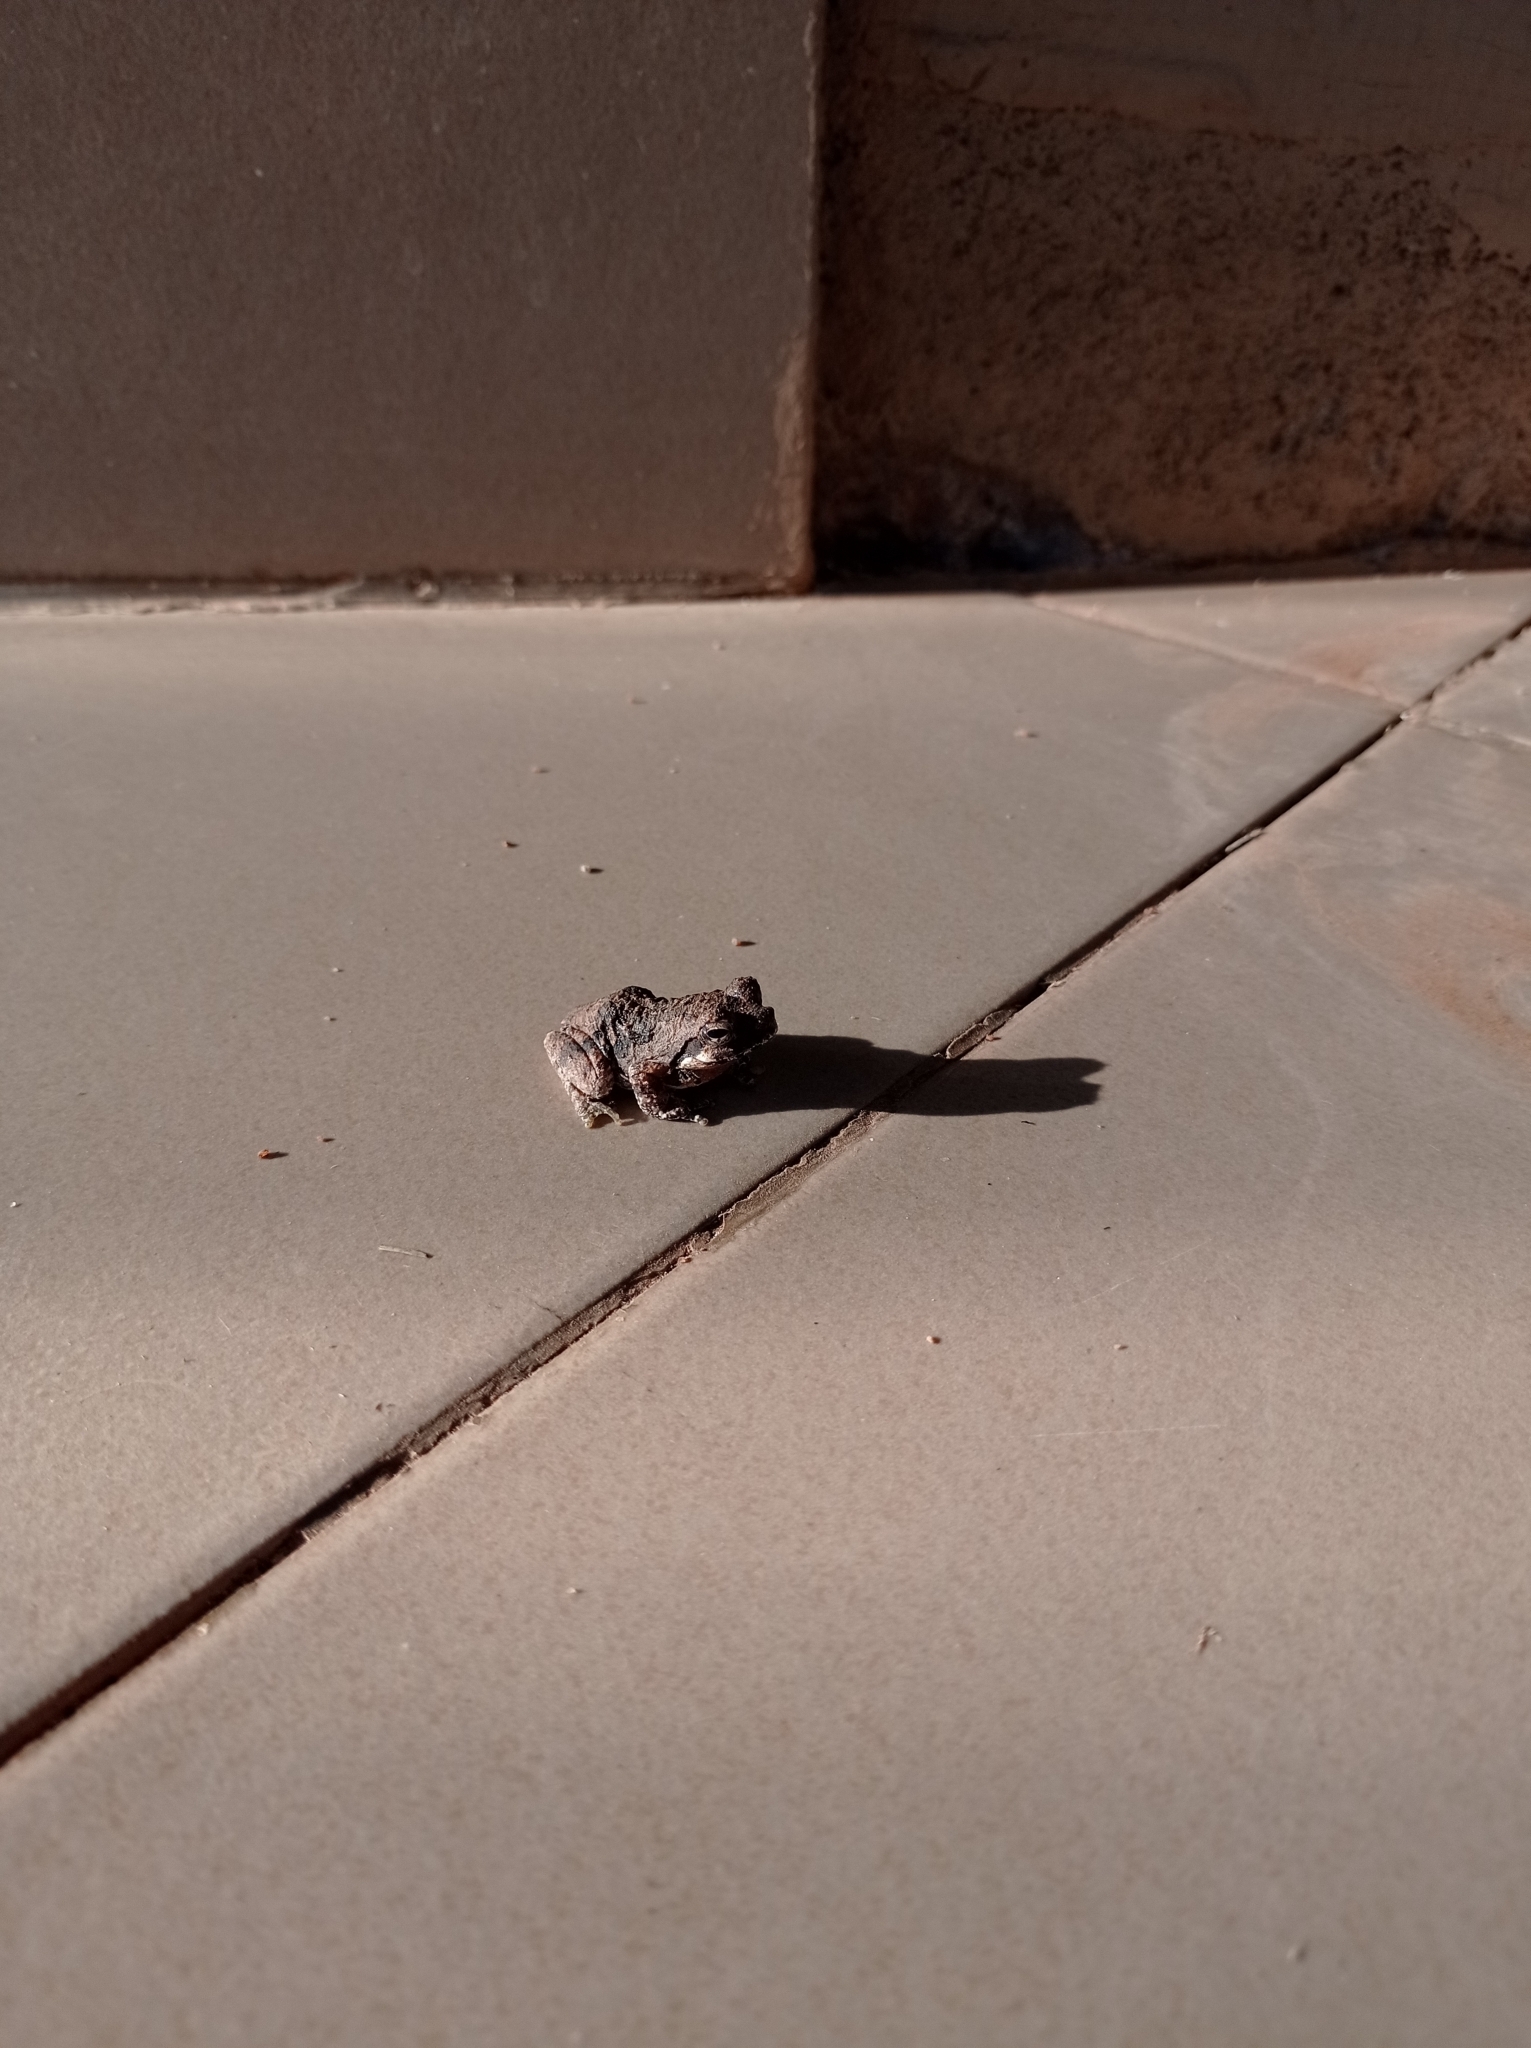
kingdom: Animalia
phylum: Chordata
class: Amphibia
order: Anura
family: Rhacophoridae
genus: Chiromantis
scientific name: Chiromantis xerampelina
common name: African gray treefrog
